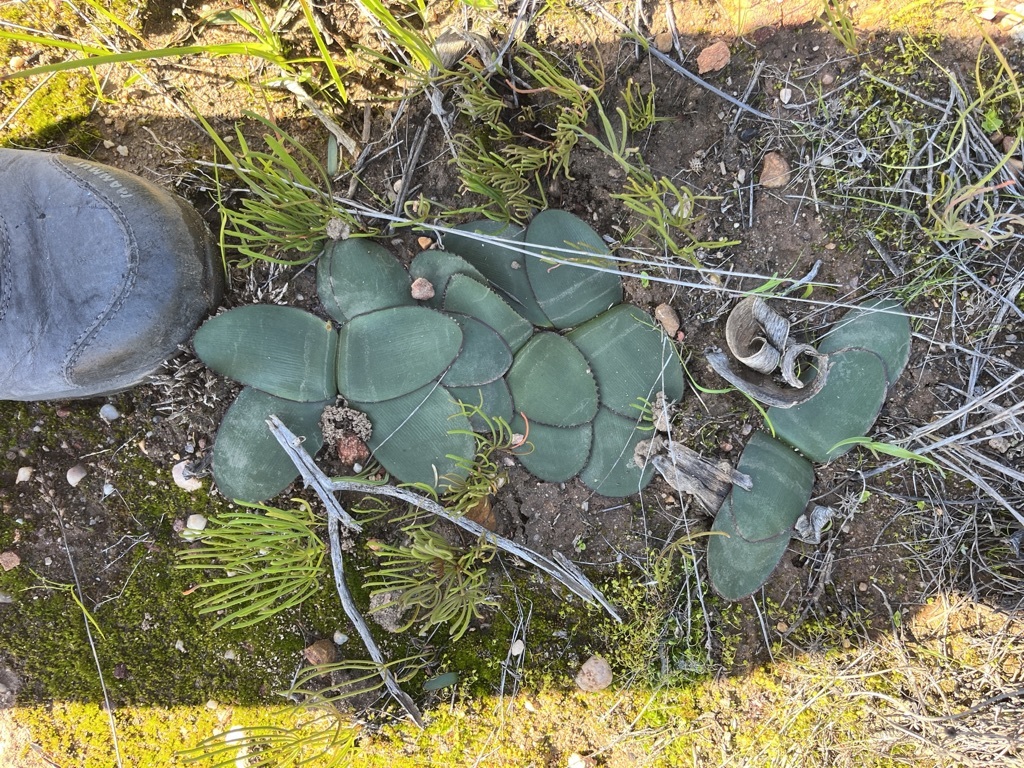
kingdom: Plantae
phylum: Tracheophyta
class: Liliopsida
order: Asparagales
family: Amaryllidaceae
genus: Brunsvigia
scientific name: Brunsvigia nervosa
